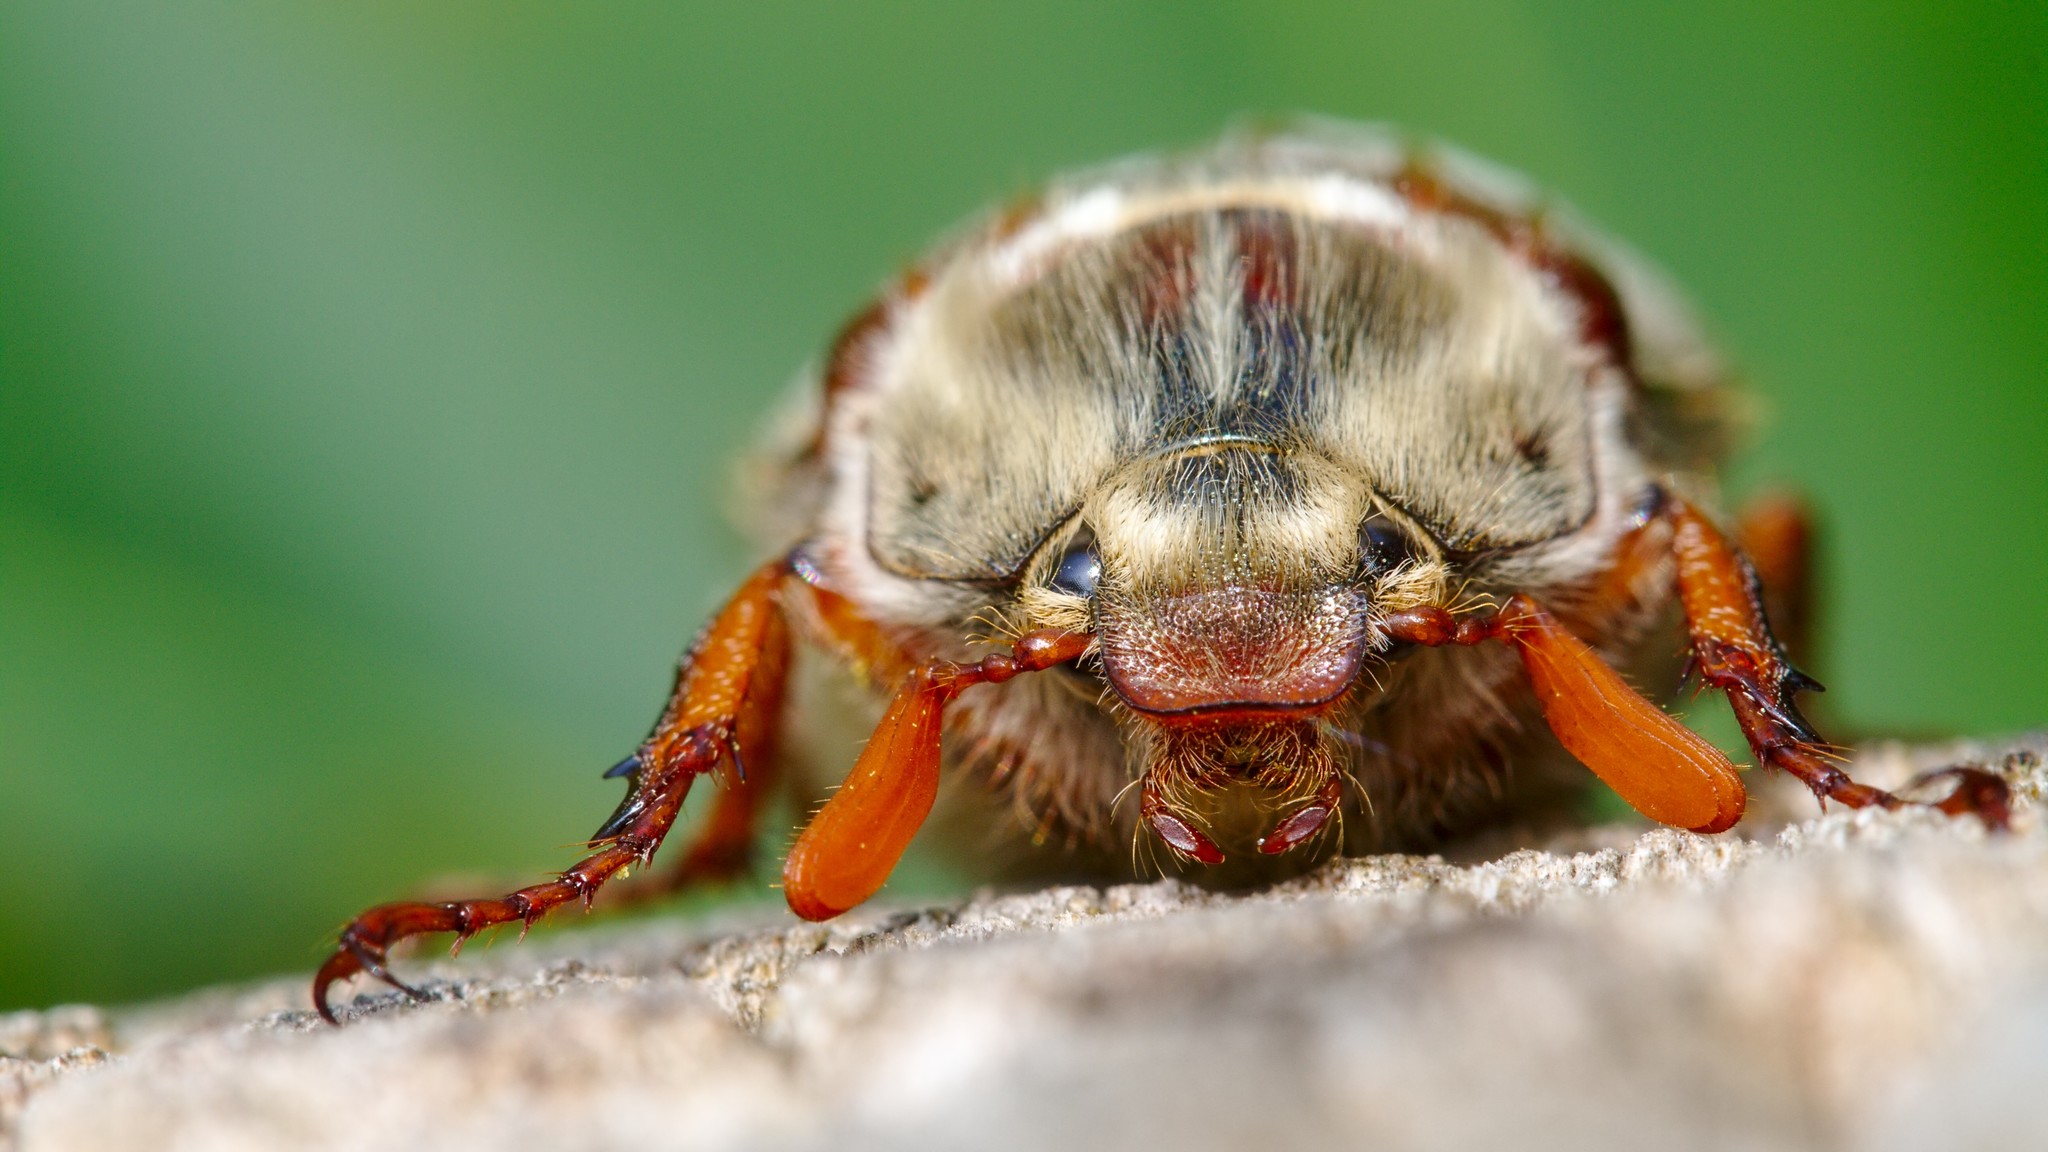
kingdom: Animalia
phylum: Arthropoda
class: Insecta
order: Coleoptera
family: Scarabaeidae
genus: Melolontha
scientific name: Melolontha melolontha
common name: Cockchafer maybeetle
